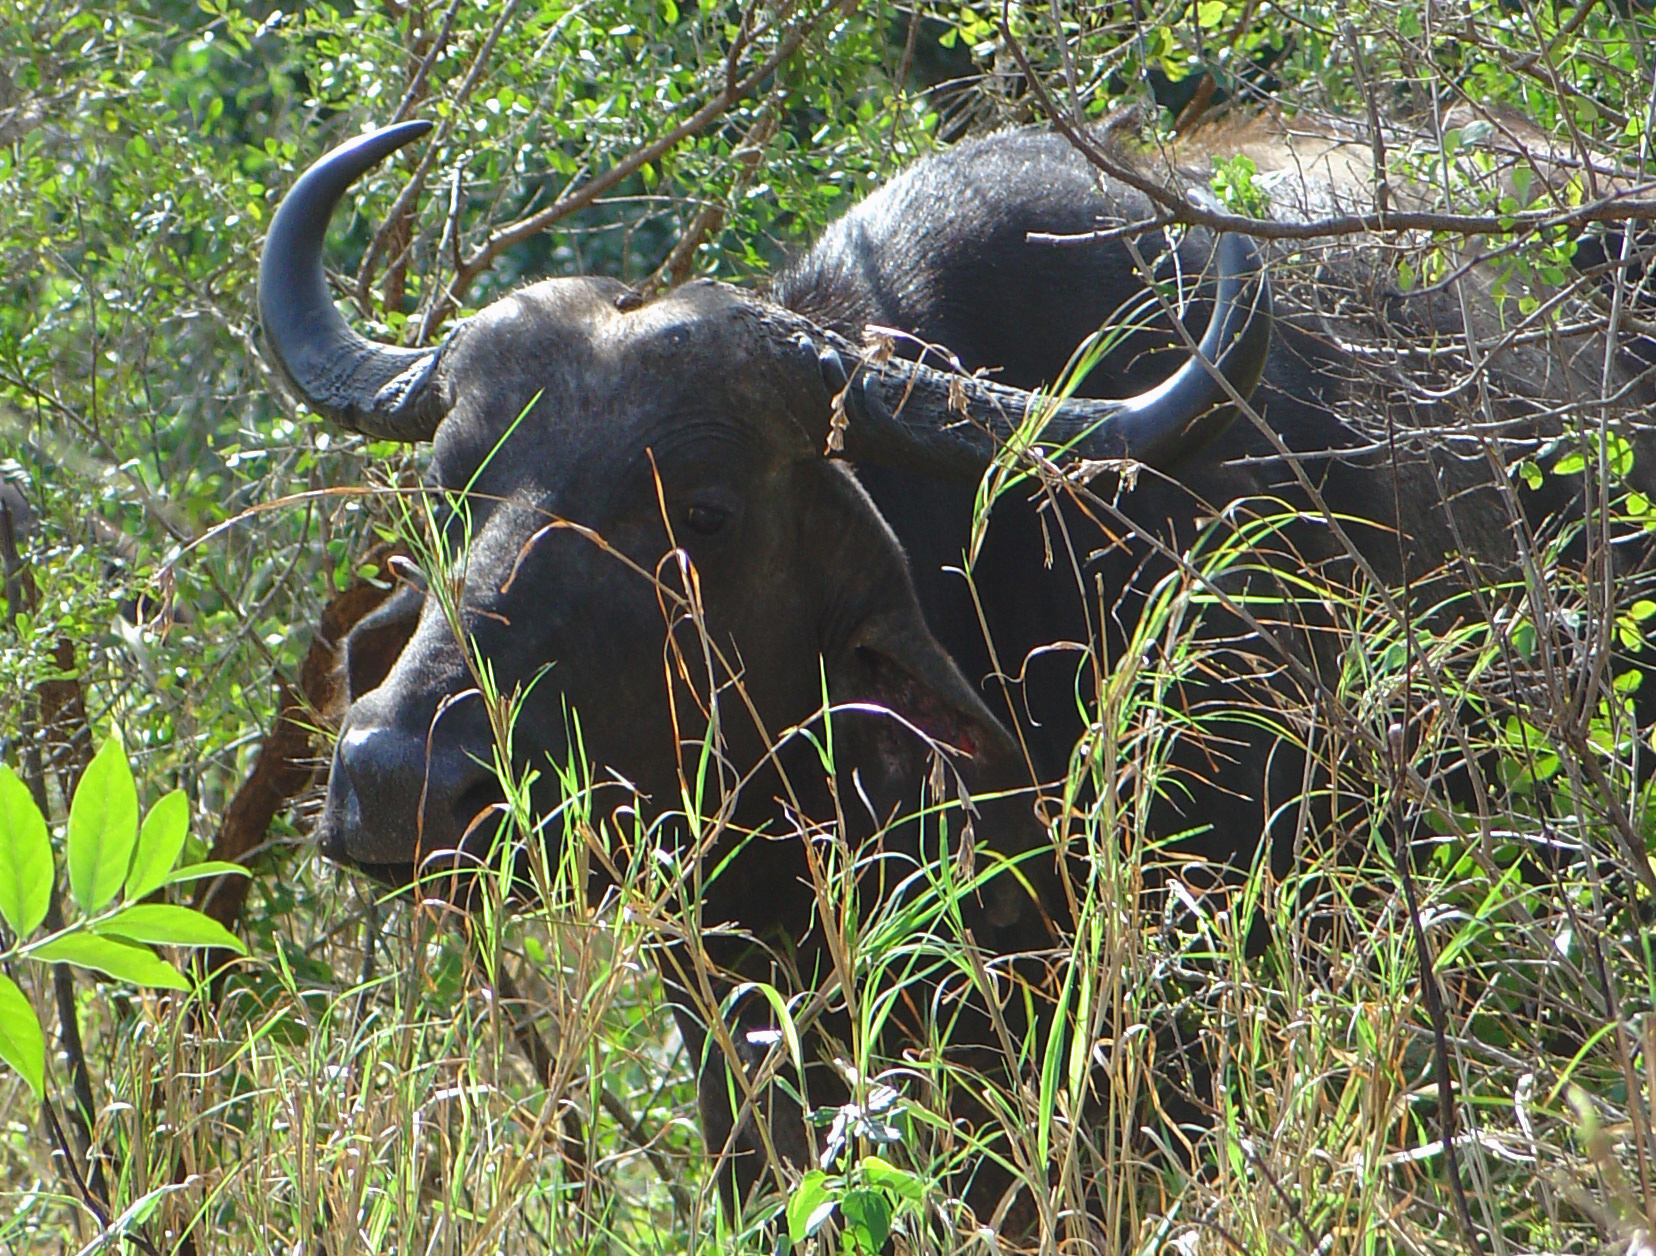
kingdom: Animalia
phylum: Chordata
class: Mammalia
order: Artiodactyla
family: Bovidae
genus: Syncerus
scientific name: Syncerus caffer
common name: African buffalo
